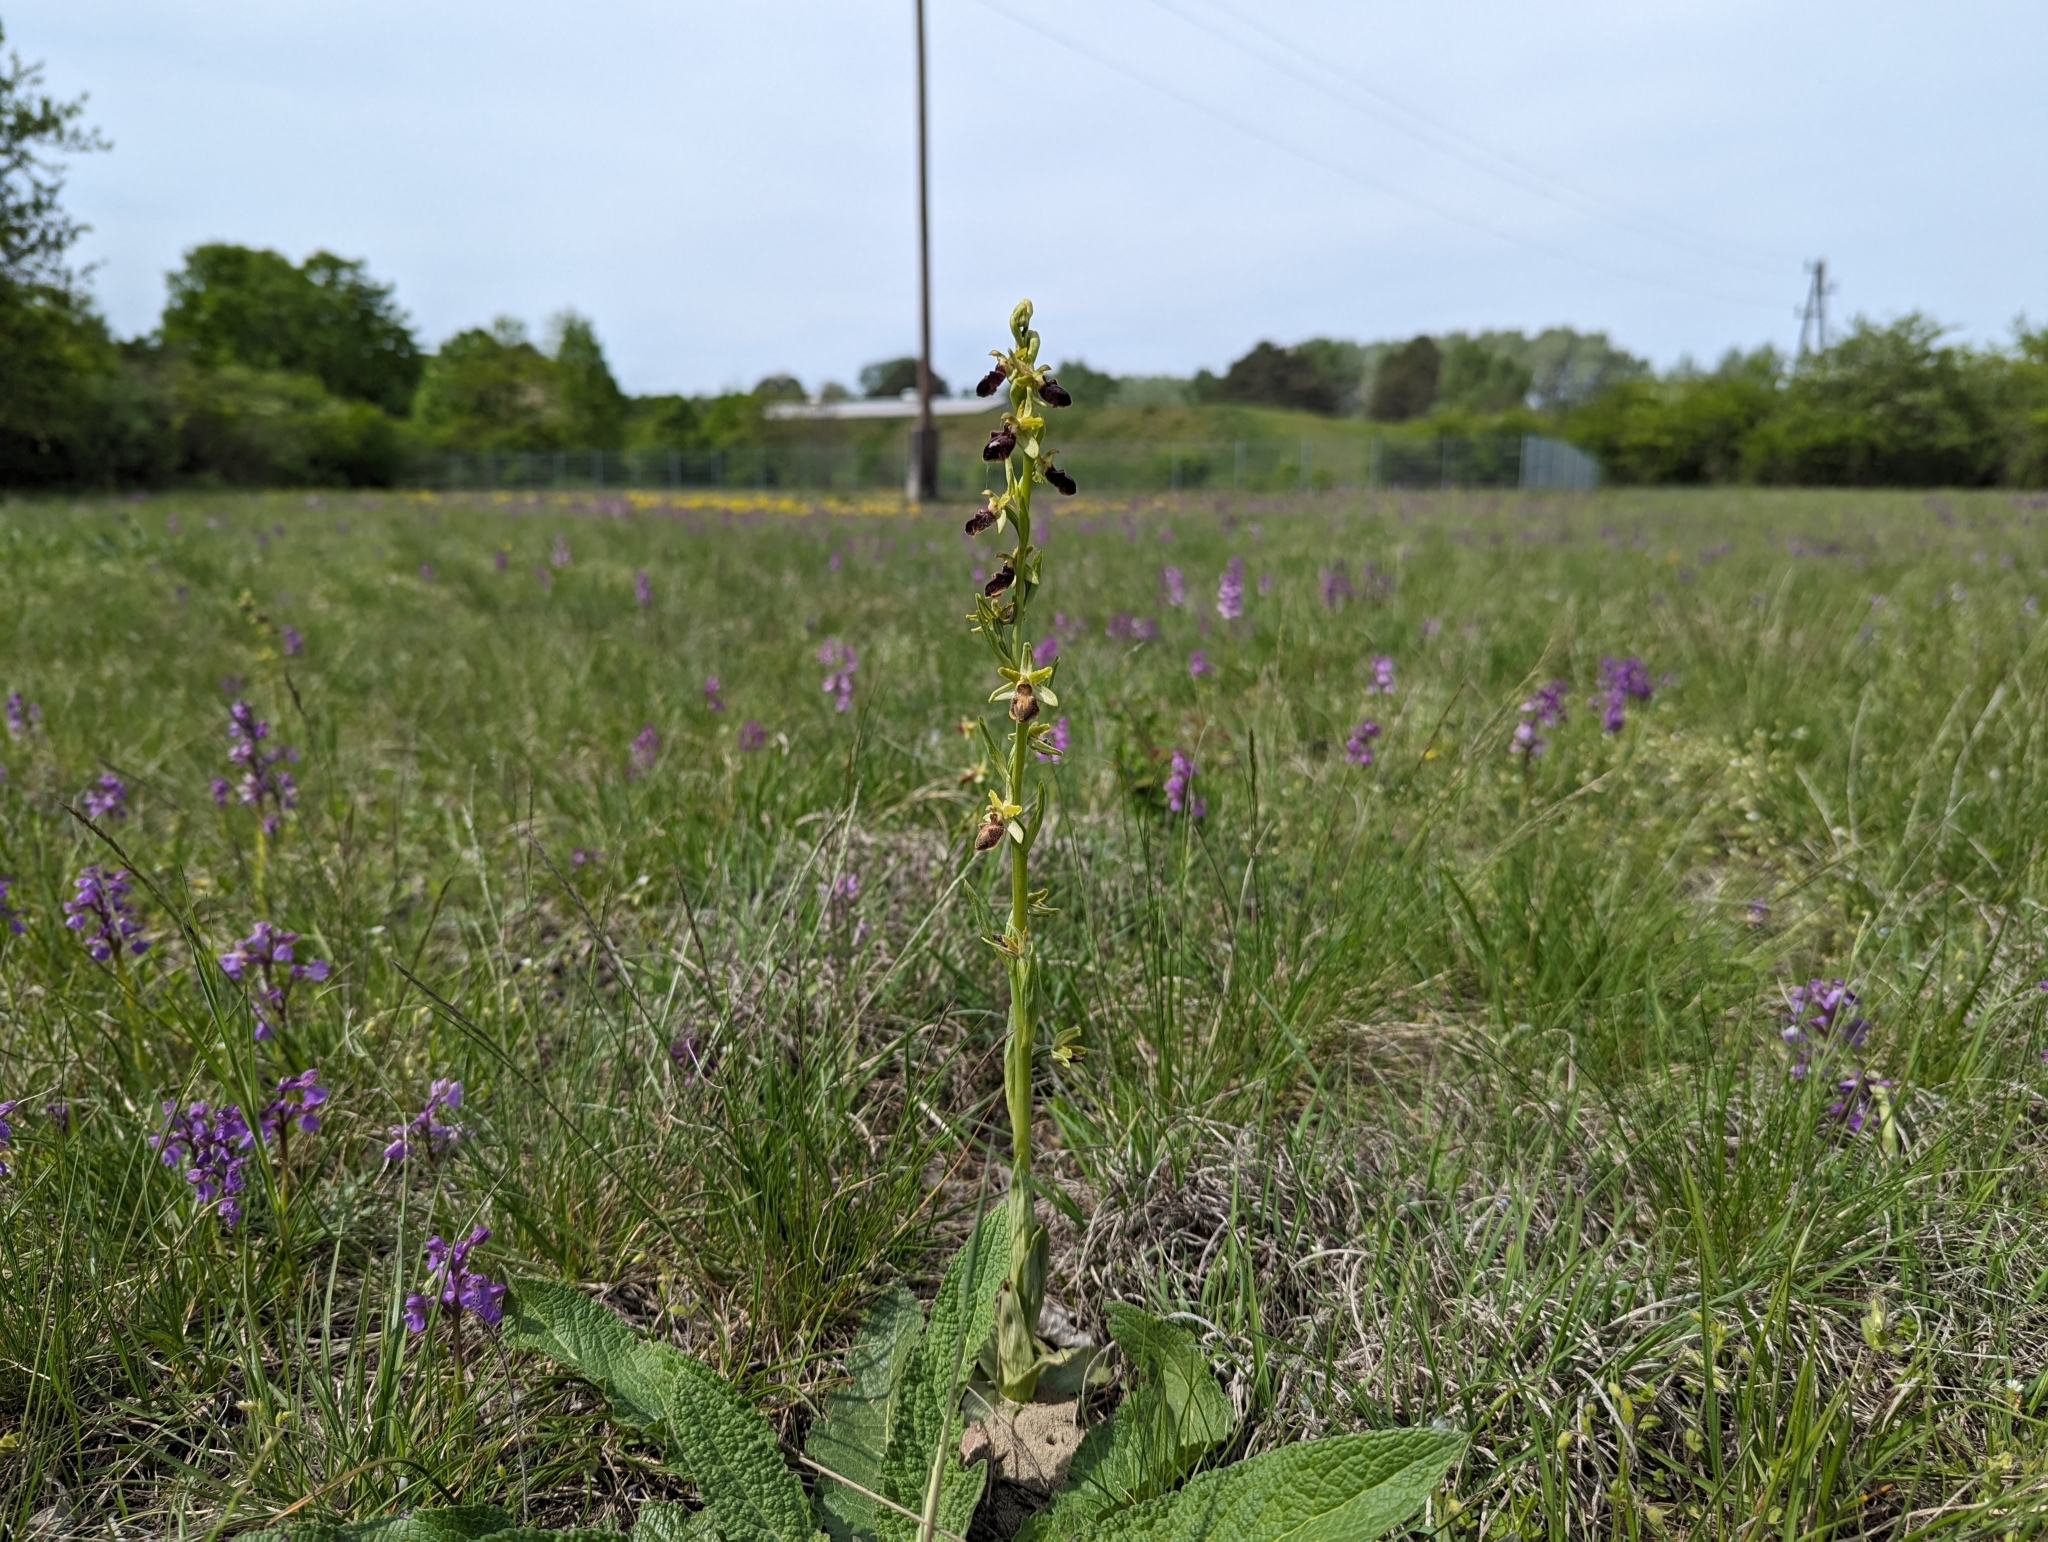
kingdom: Plantae
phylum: Tracheophyta
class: Liliopsida
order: Asparagales
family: Orchidaceae
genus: Ophrys
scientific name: Ophrys sphegodes
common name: Early spider-orchid
